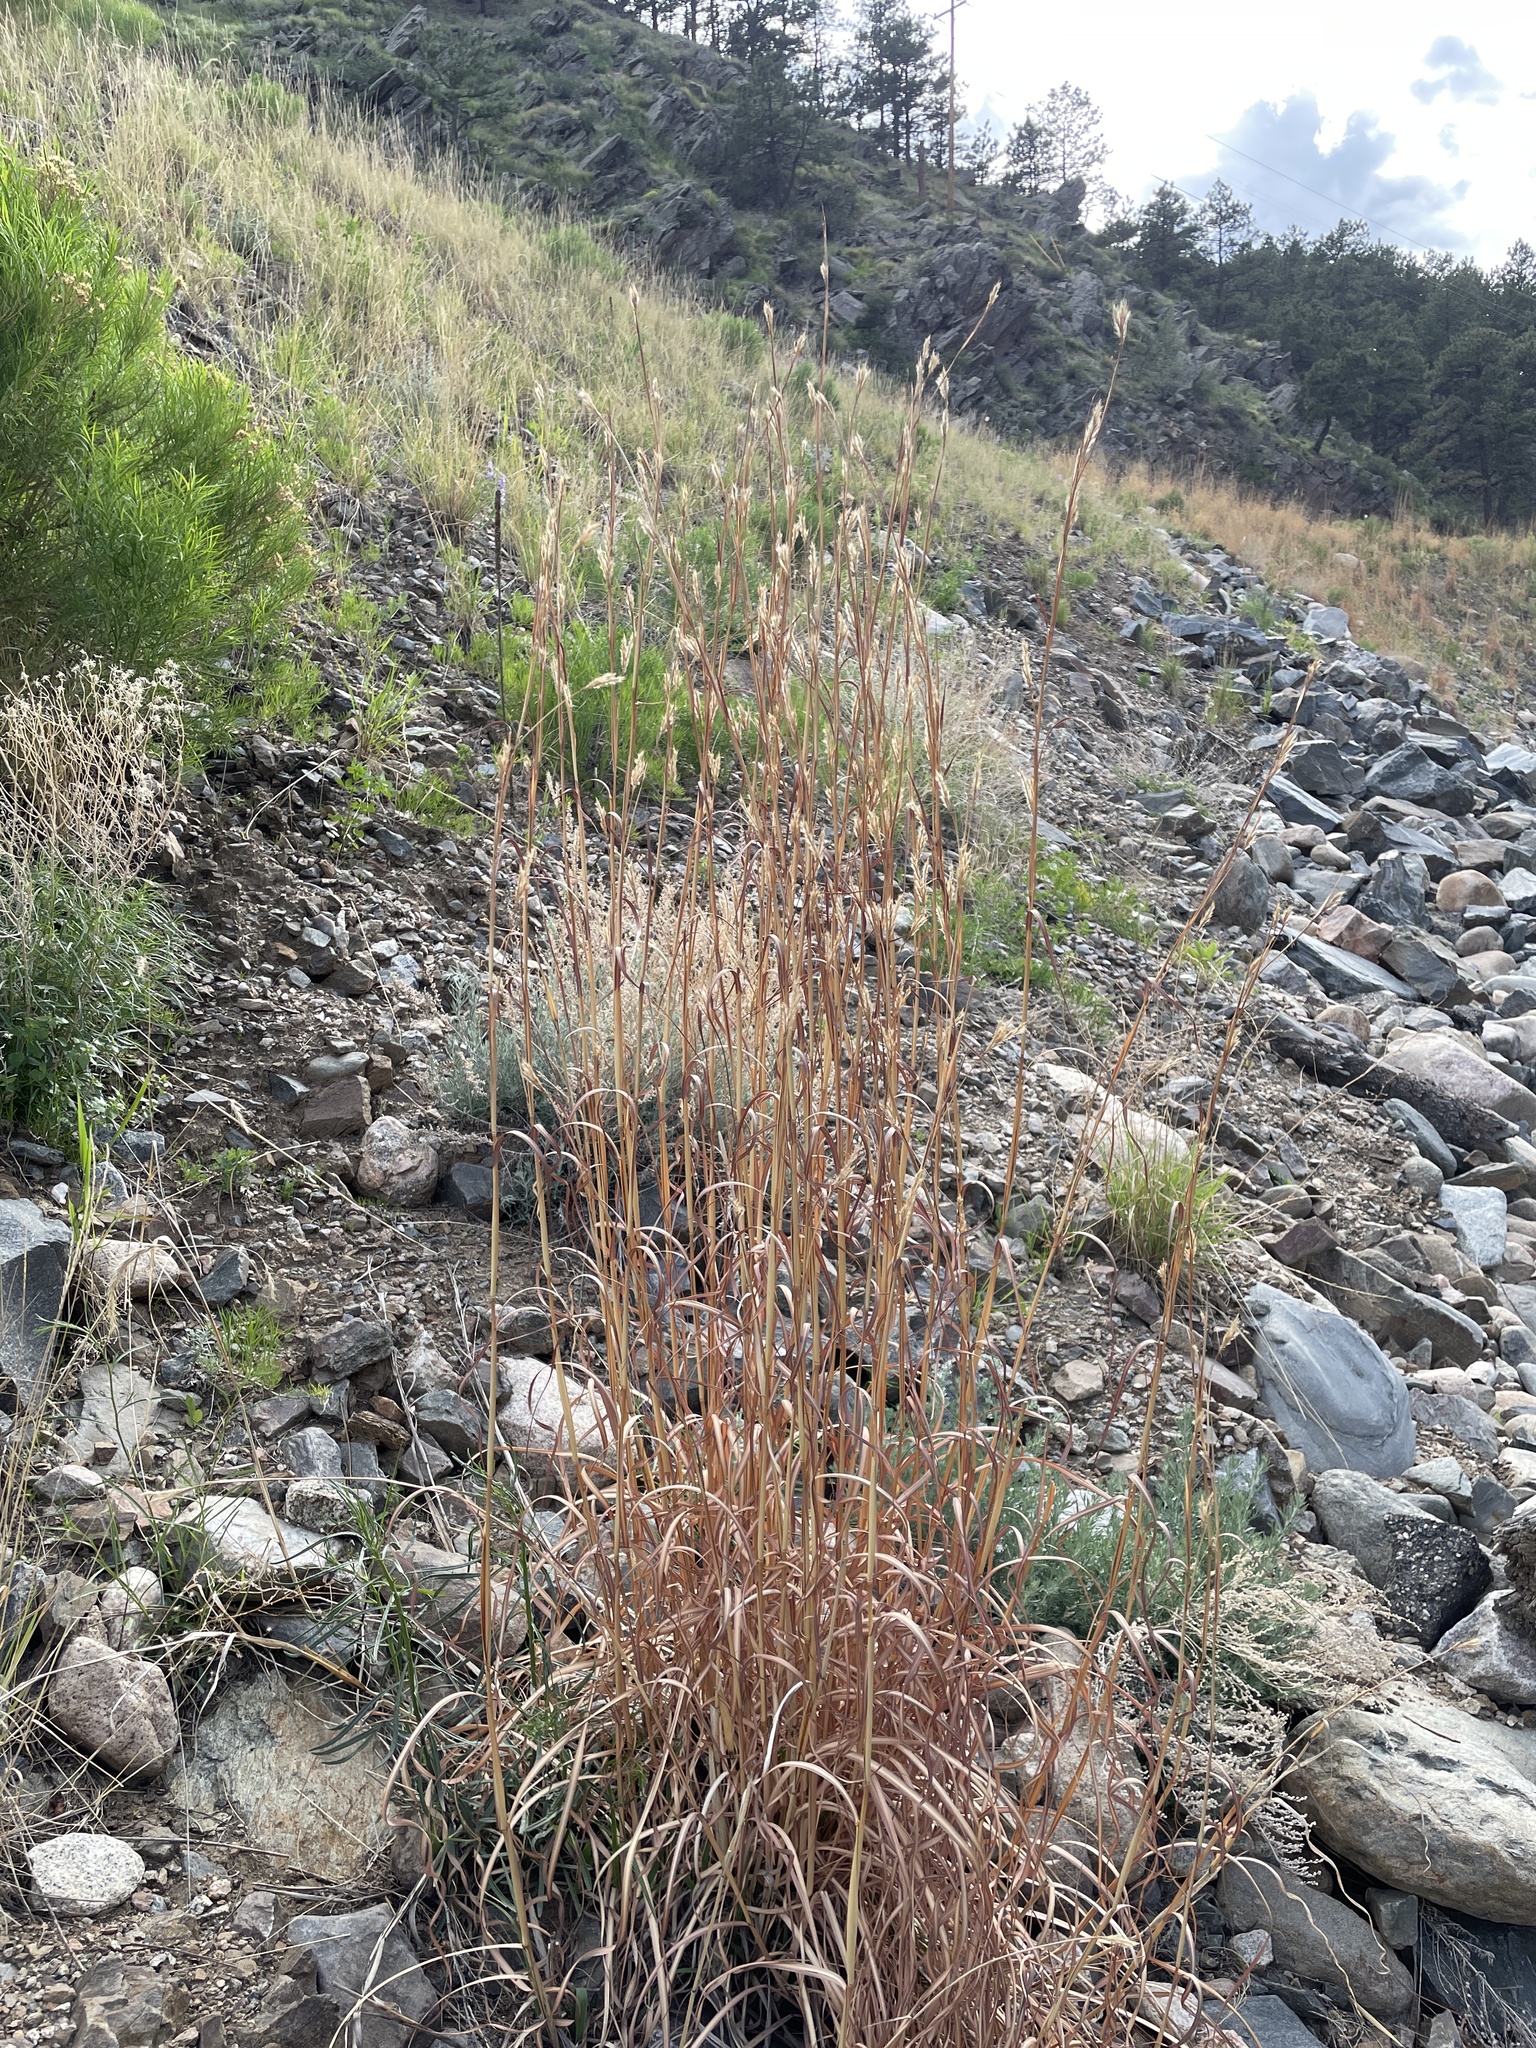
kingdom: Plantae
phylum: Tracheophyta
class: Liliopsida
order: Poales
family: Poaceae
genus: Andropogon
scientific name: Andropogon gerardi
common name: Big bluestem
